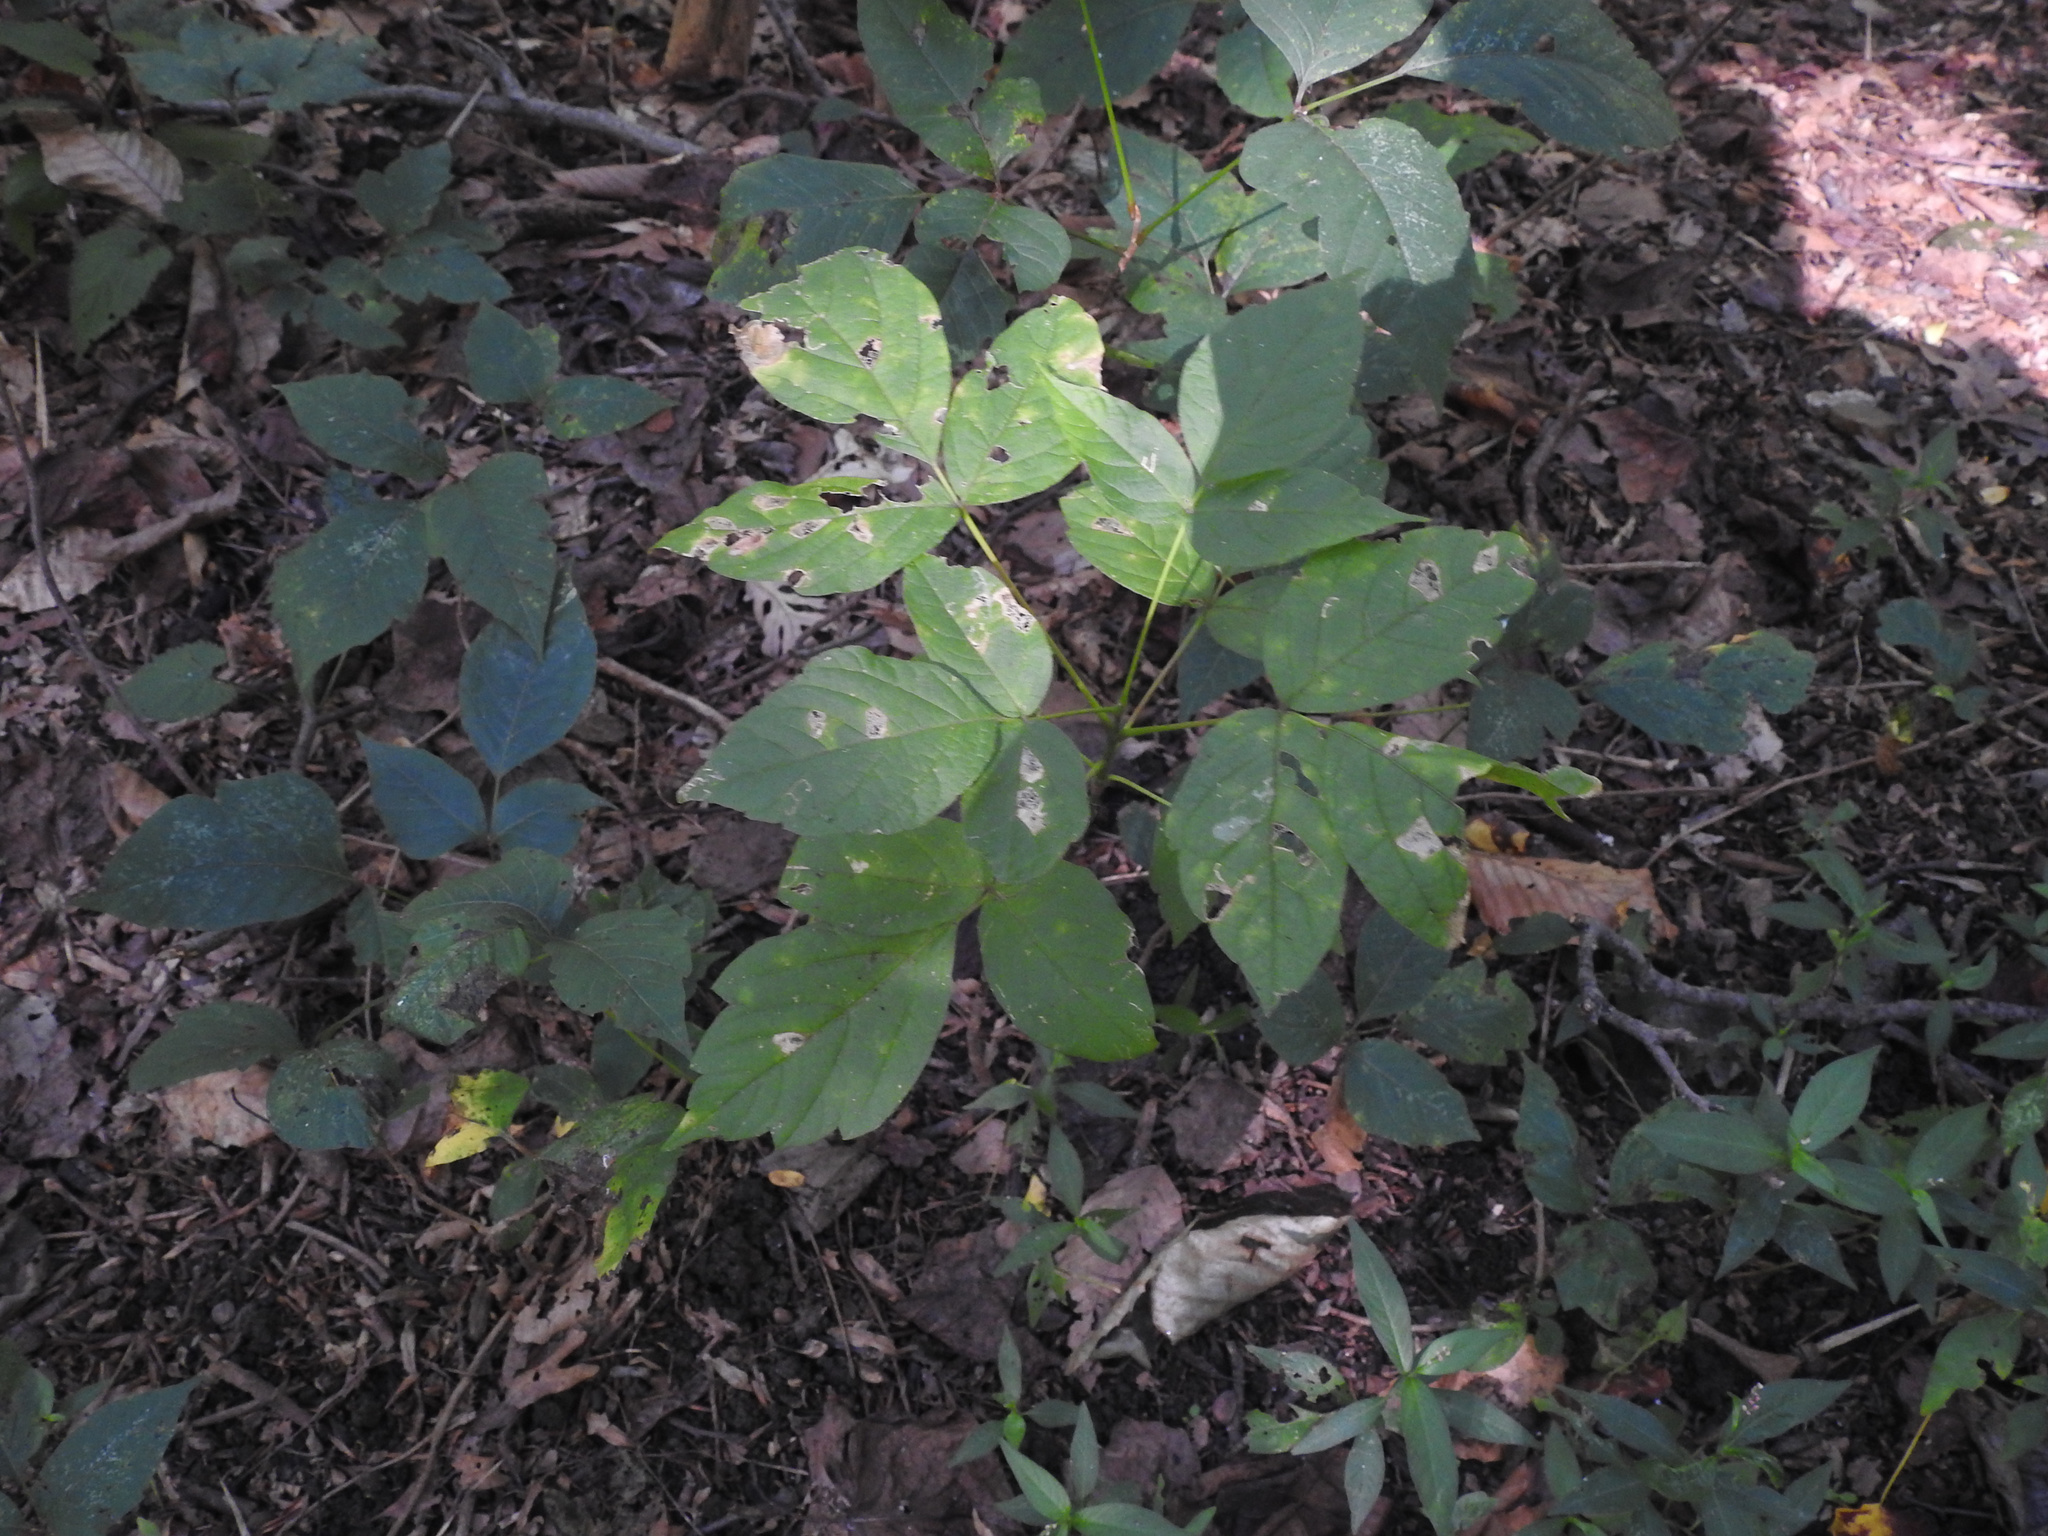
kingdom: Plantae
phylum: Tracheophyta
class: Magnoliopsida
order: Sapindales
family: Anacardiaceae
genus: Toxicodendron
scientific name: Toxicodendron radicans
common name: Poison ivy
